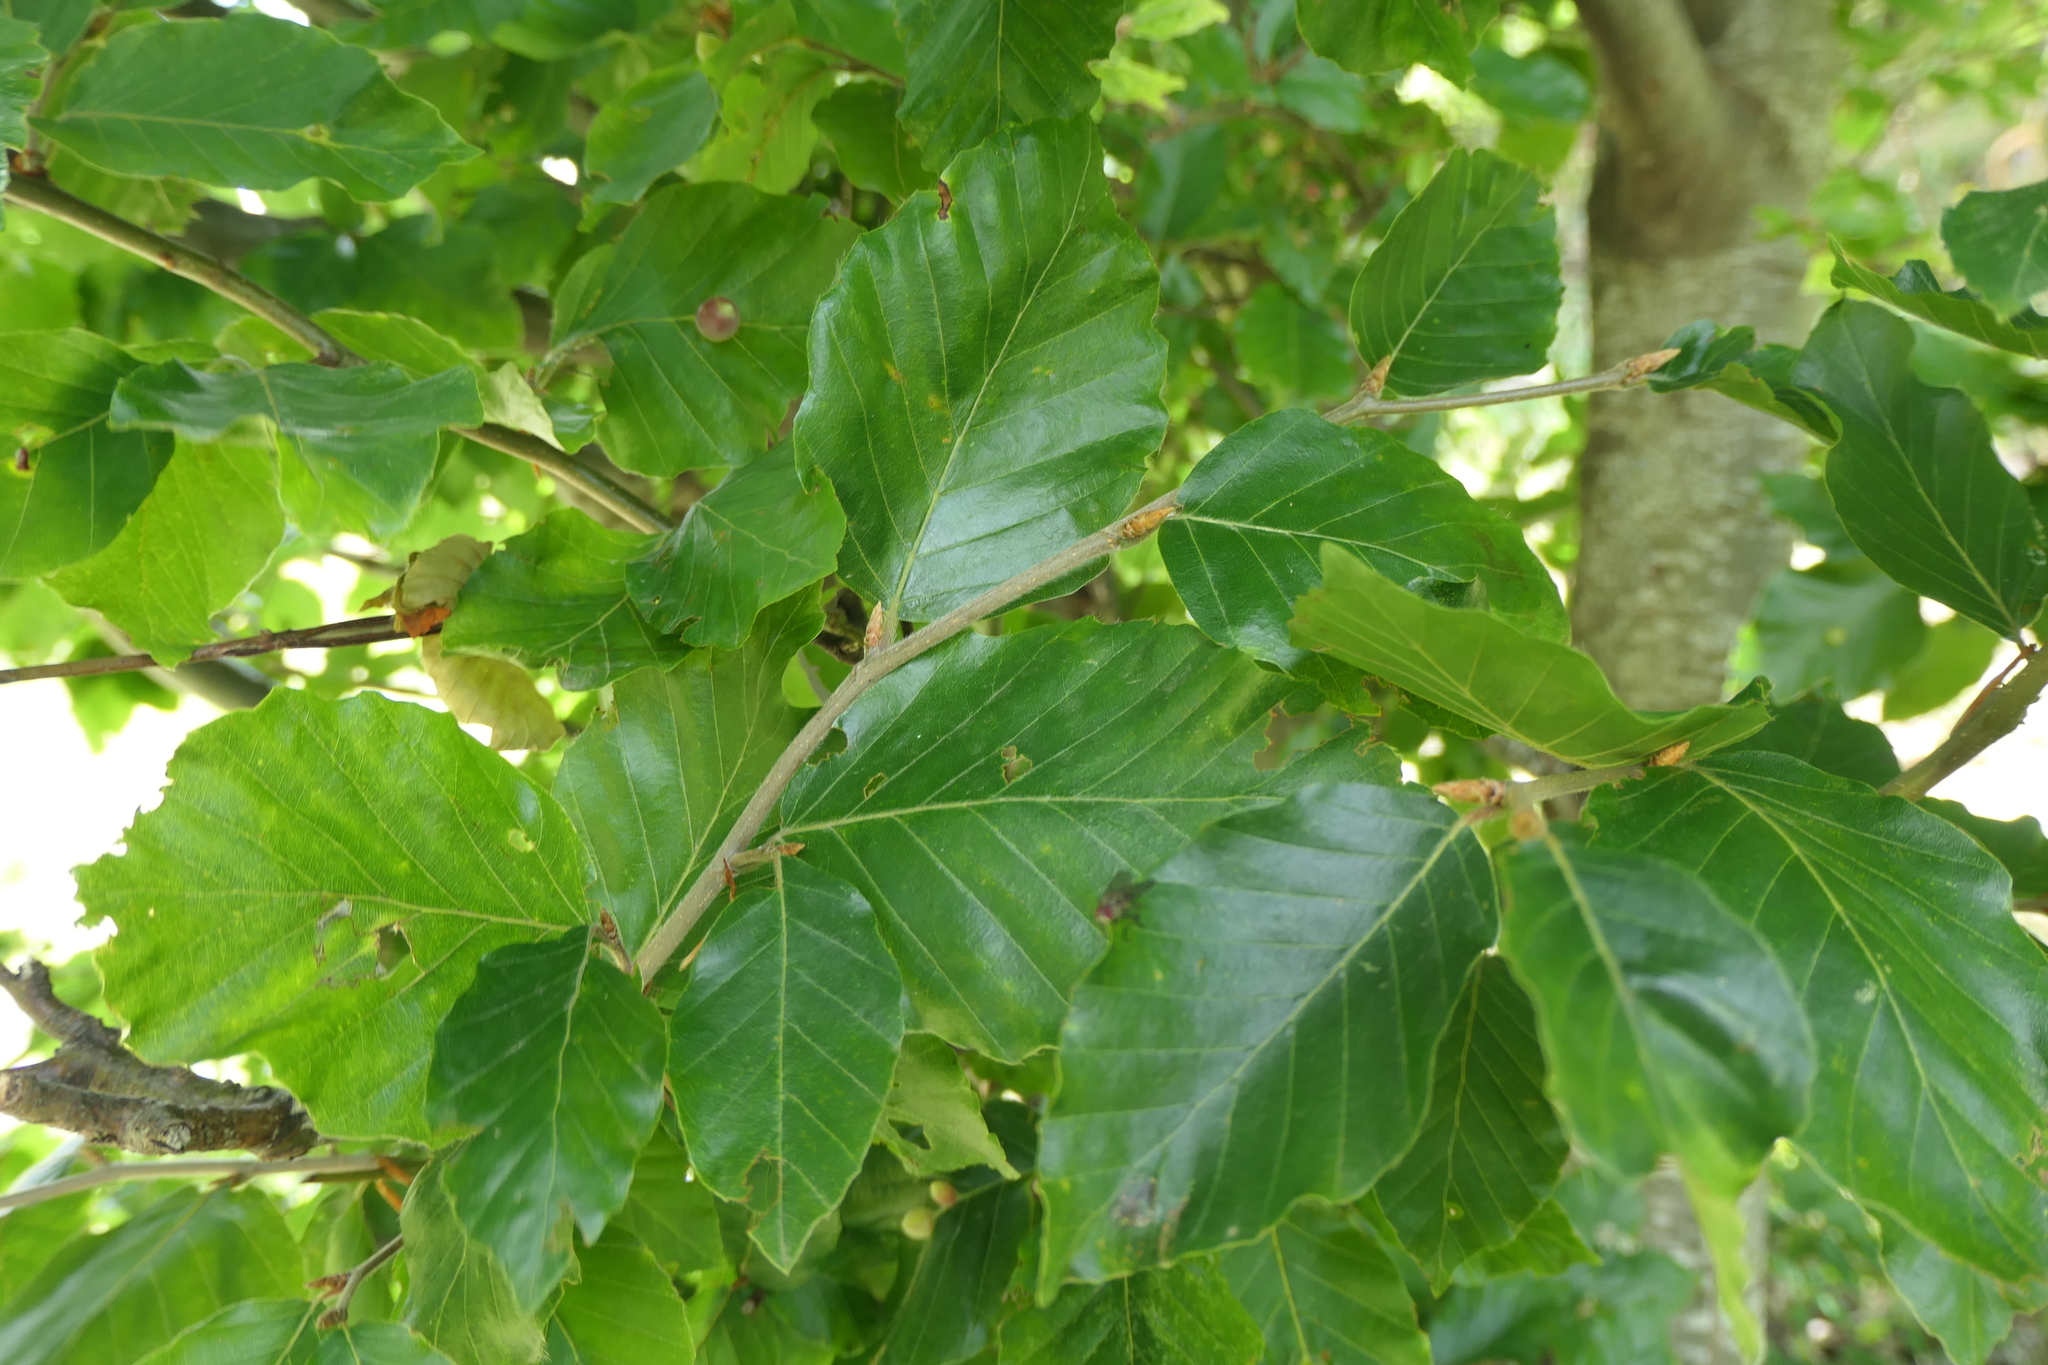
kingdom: Plantae
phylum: Tracheophyta
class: Magnoliopsida
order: Fagales
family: Fagaceae
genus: Fagus
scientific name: Fagus sylvatica
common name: Beech
